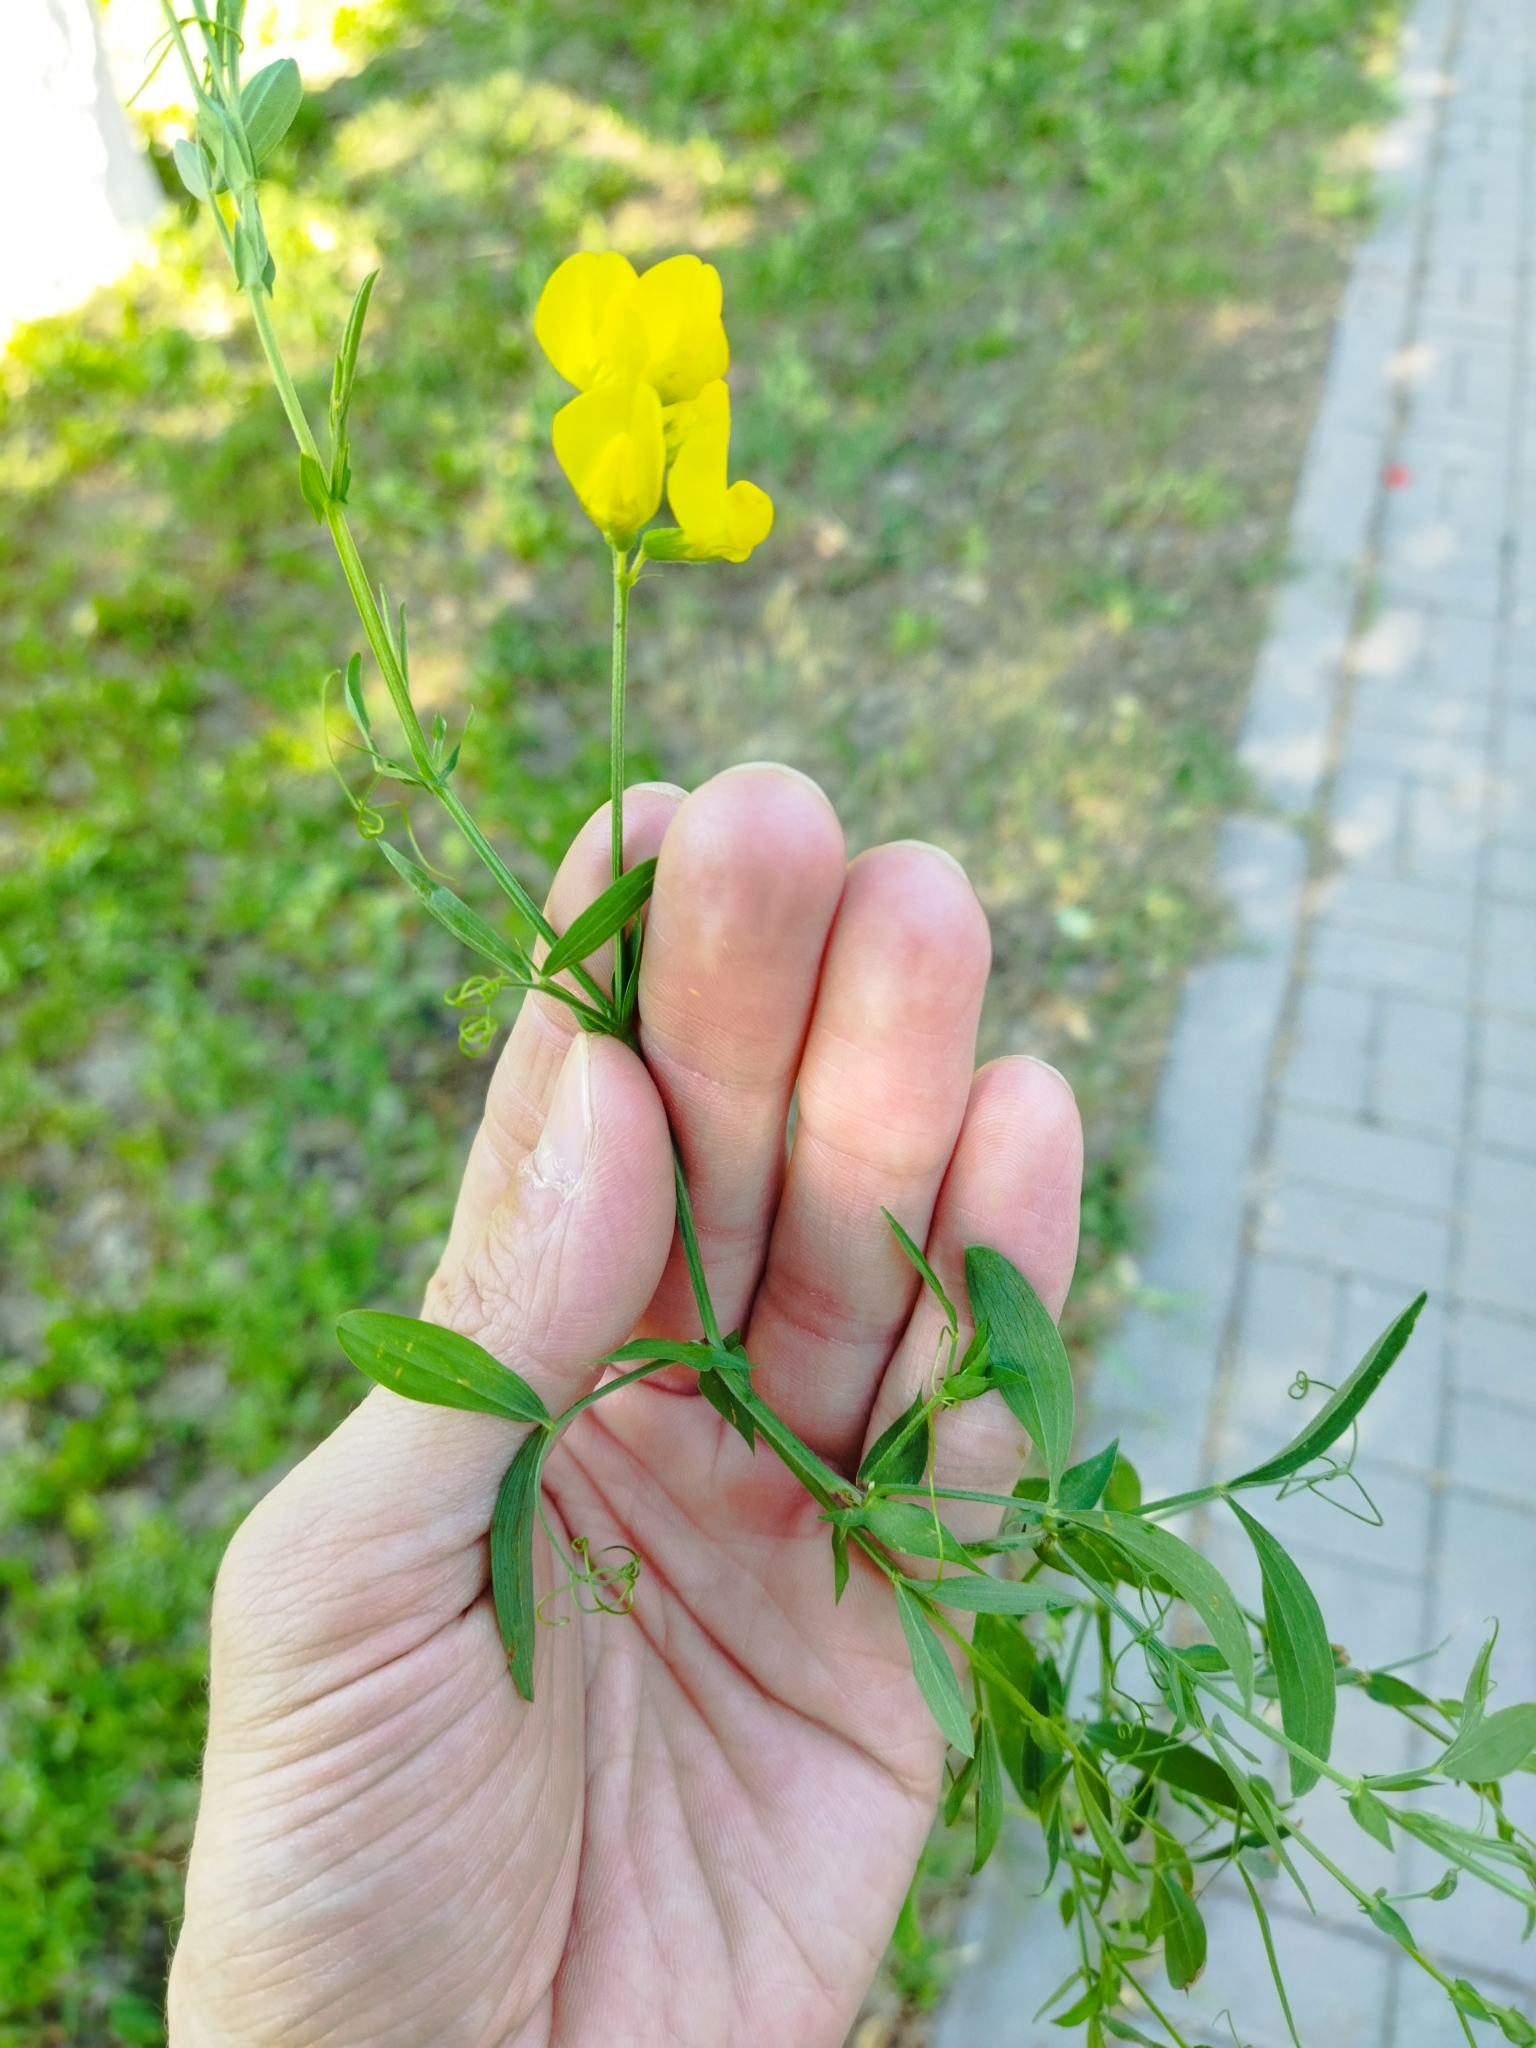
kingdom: Plantae
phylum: Tracheophyta
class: Magnoliopsida
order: Fabales
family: Fabaceae
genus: Lathyrus
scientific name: Lathyrus pratensis
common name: Meadow vetchling
